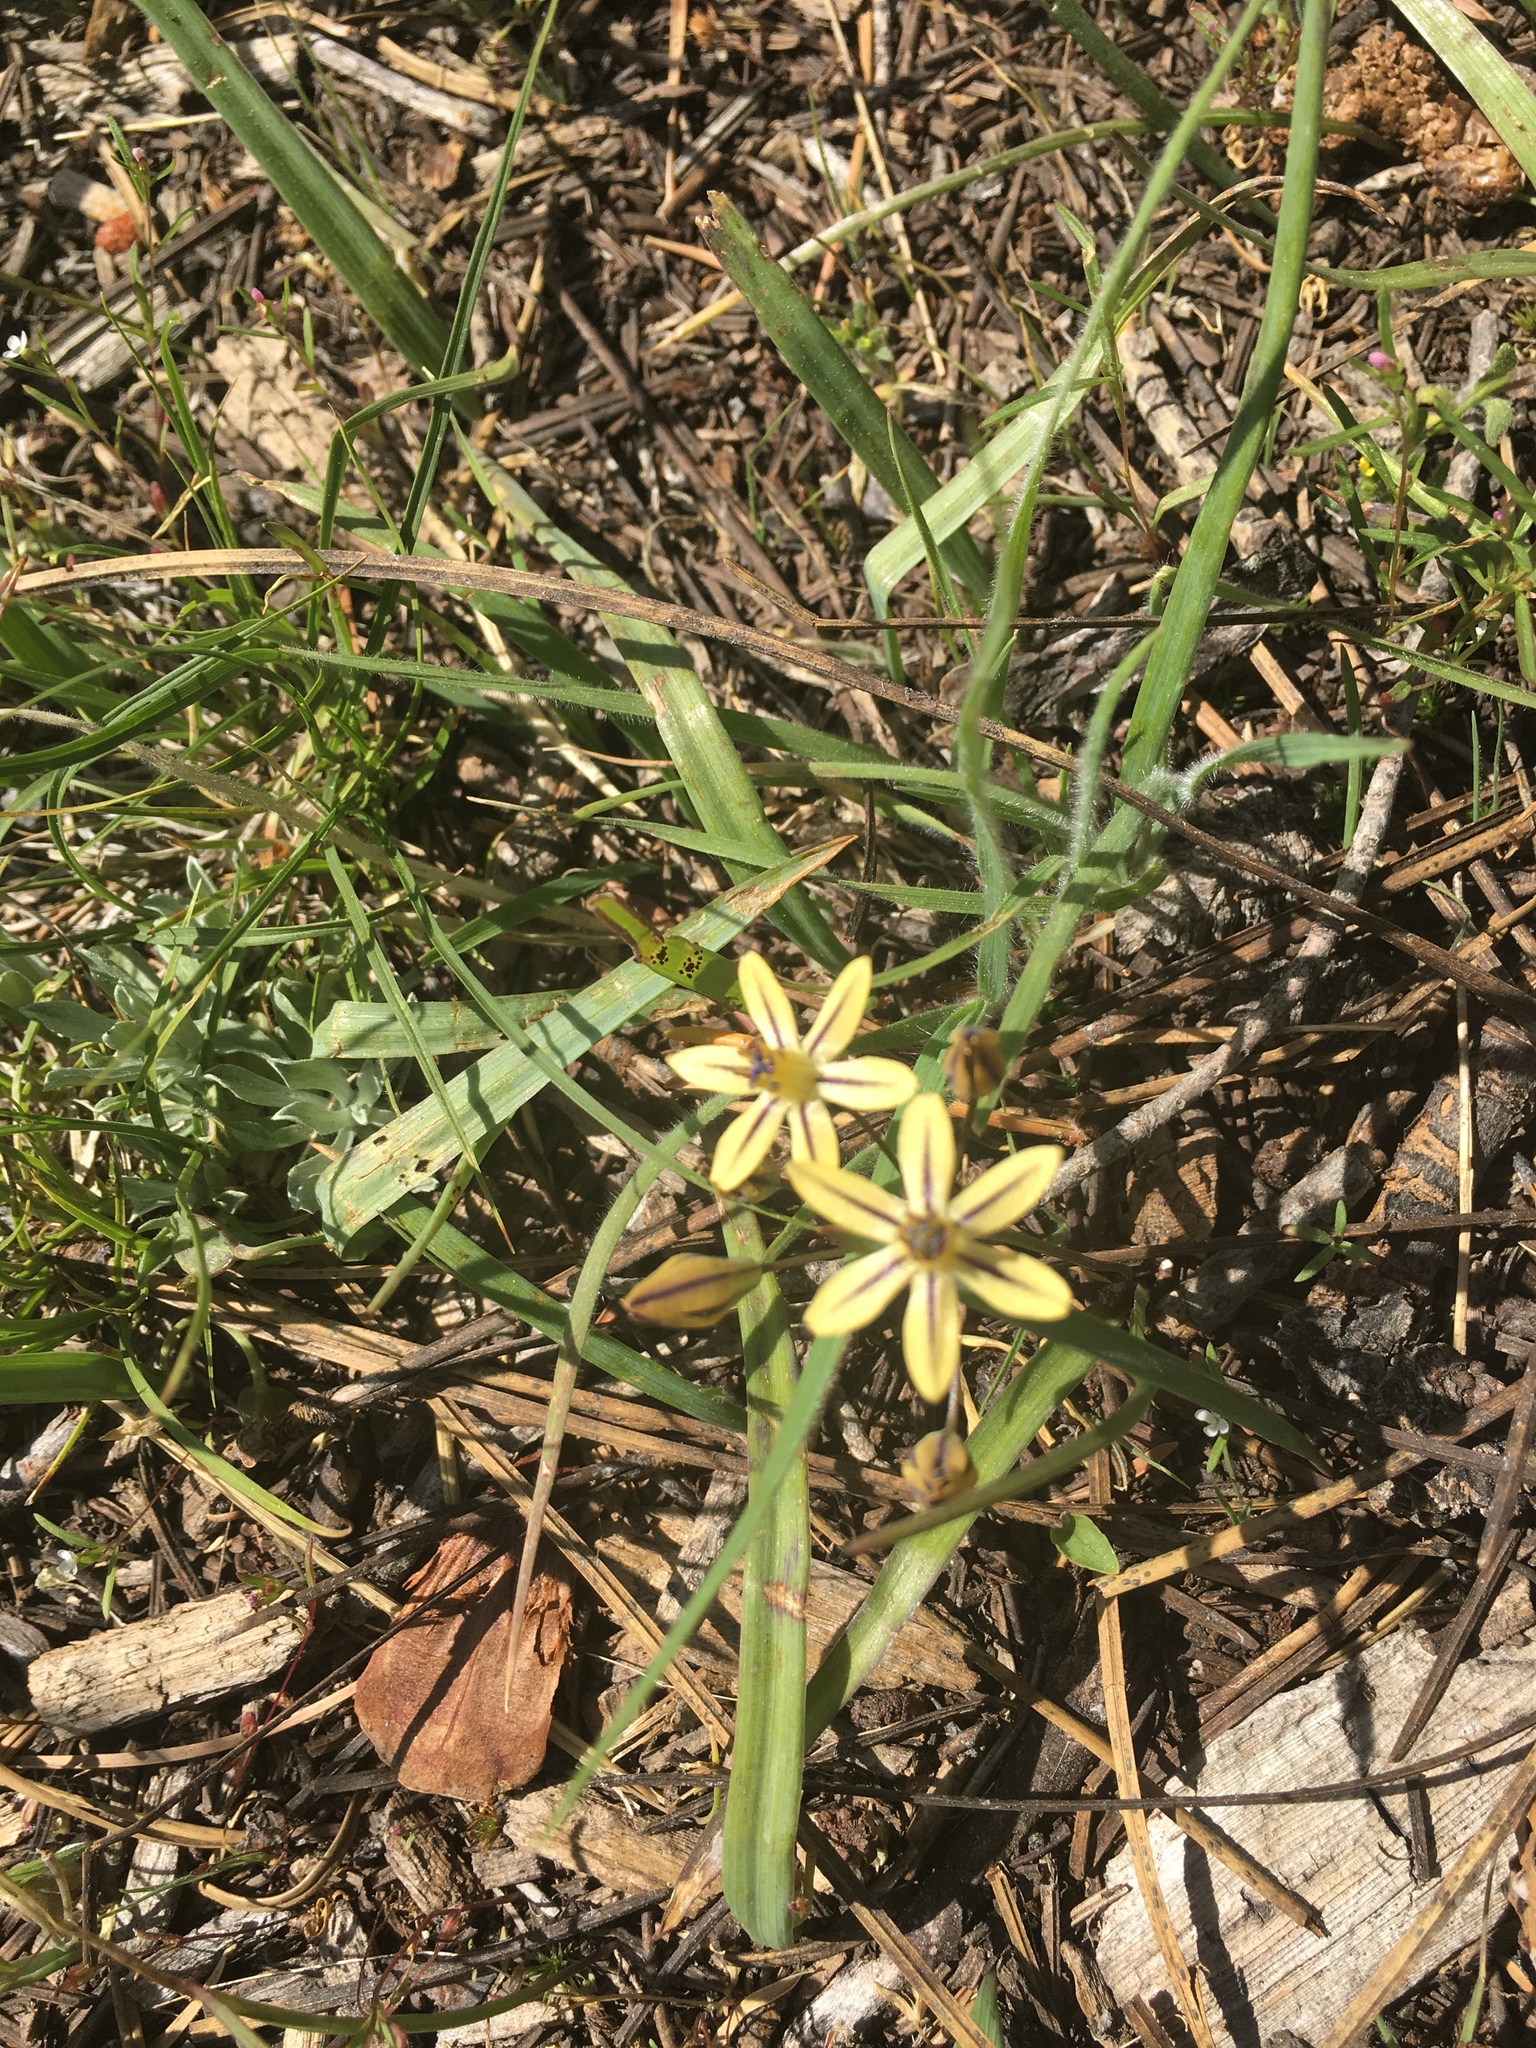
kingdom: Plantae
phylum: Tracheophyta
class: Liliopsida
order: Asparagales
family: Asparagaceae
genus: Triteleia
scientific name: Triteleia ixioides
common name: Yellow-brodiaea
